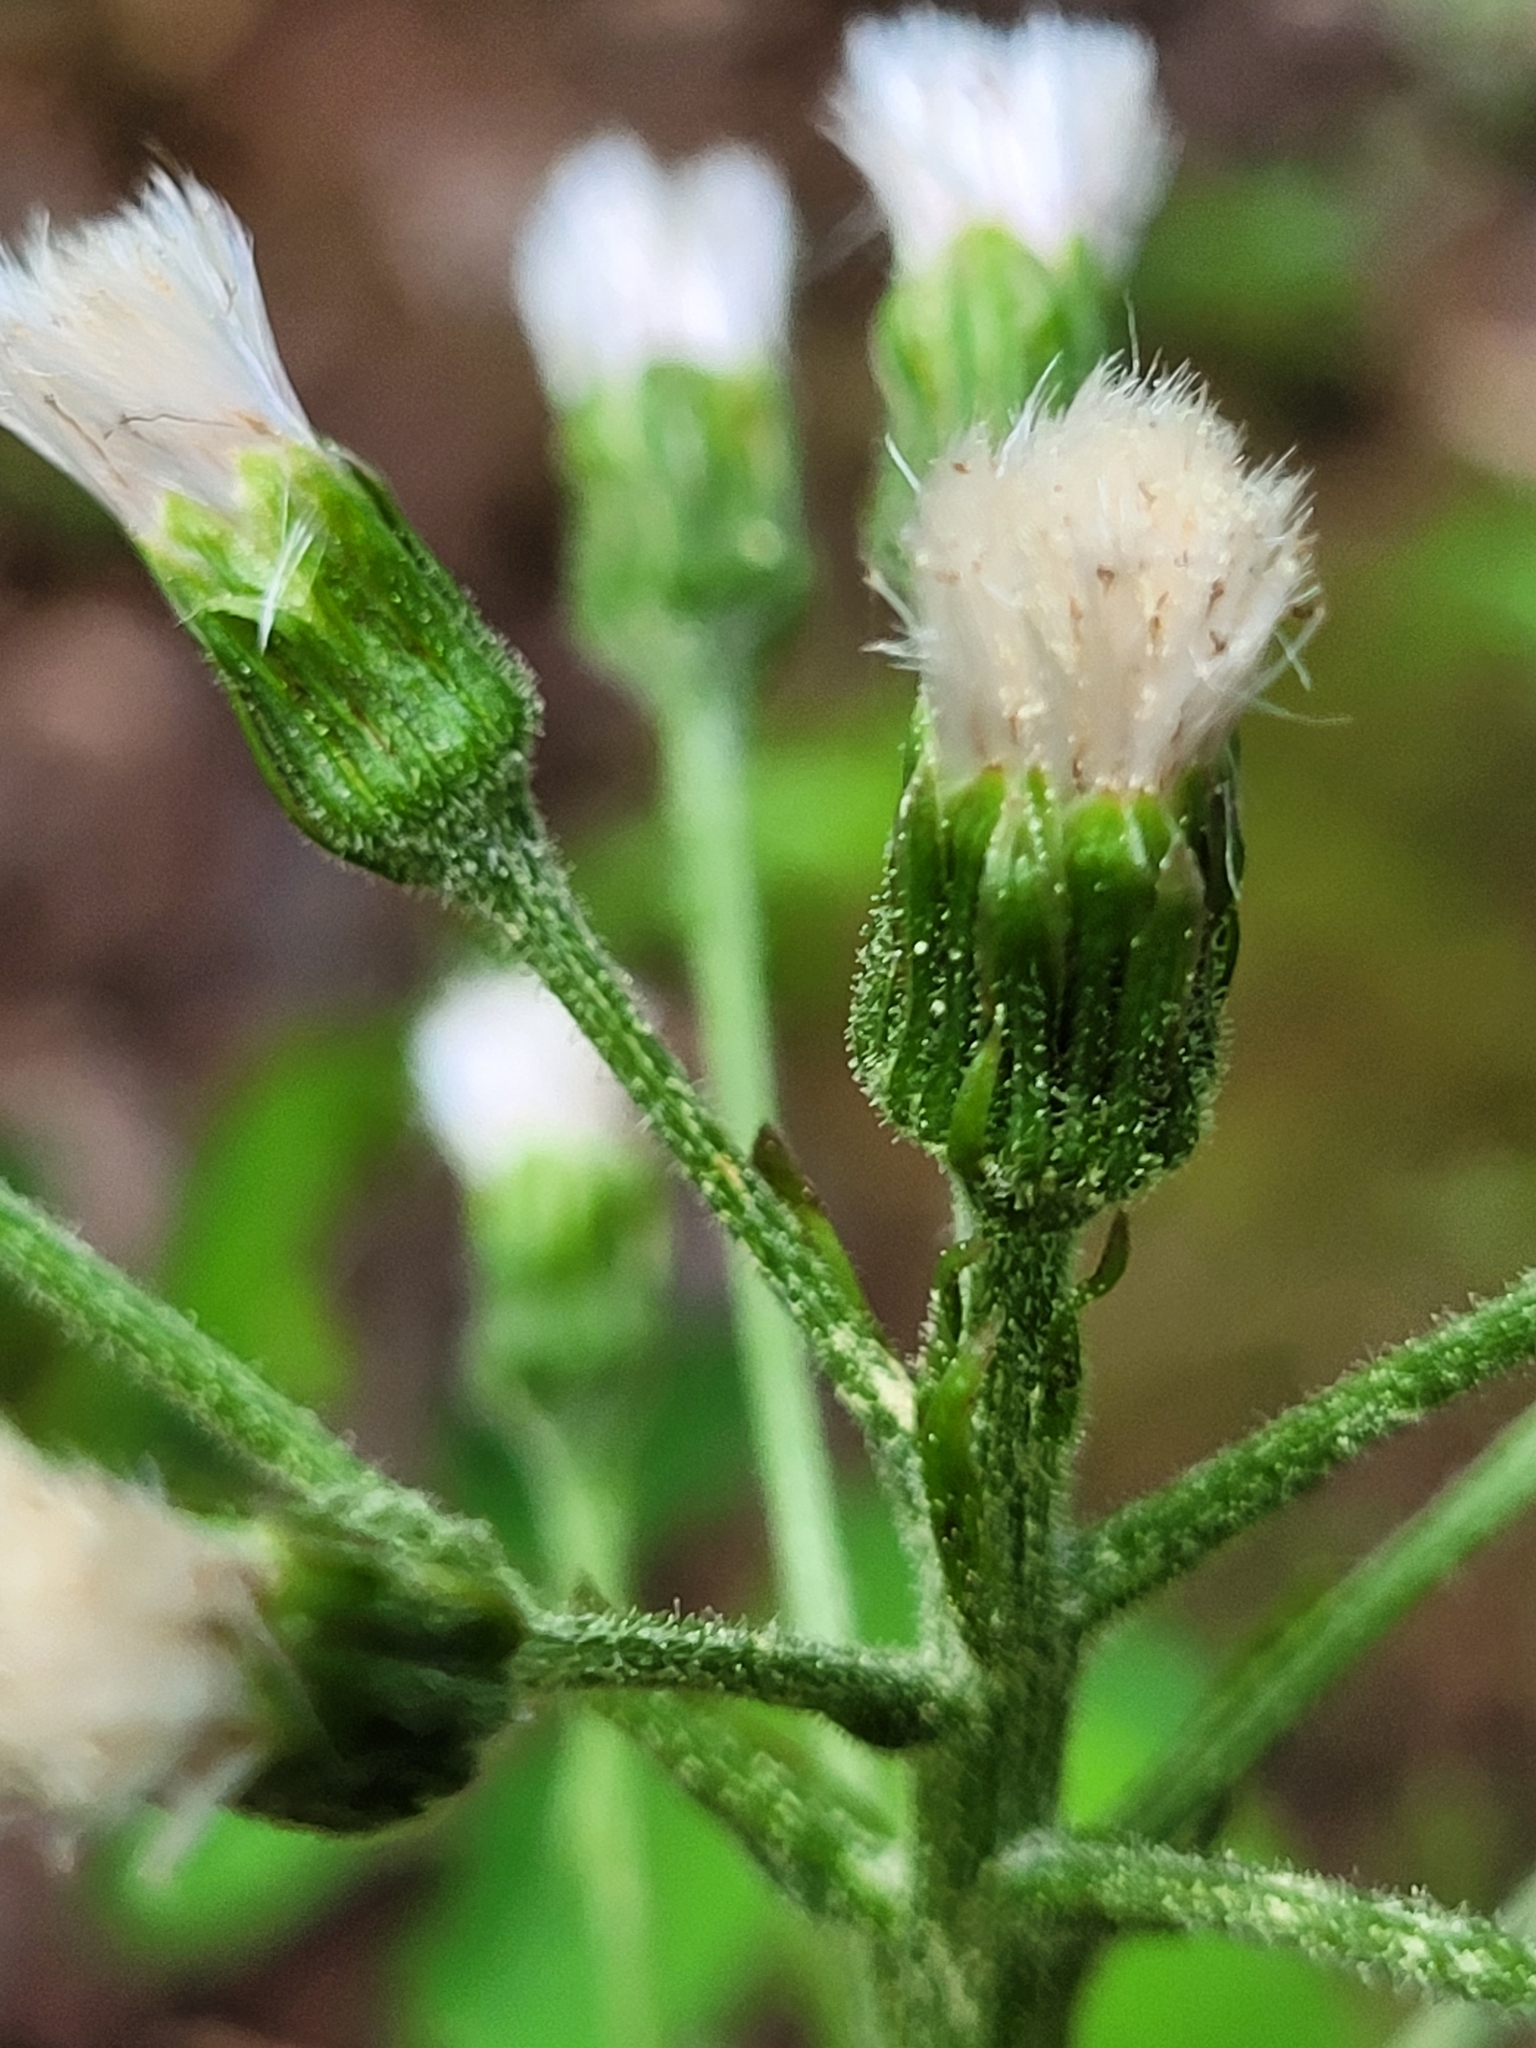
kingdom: Plantae
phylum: Tracheophyta
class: Magnoliopsida
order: Asterales
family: Asteraceae
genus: Petasites
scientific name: Petasites frigidus
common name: Arctic butterbur
